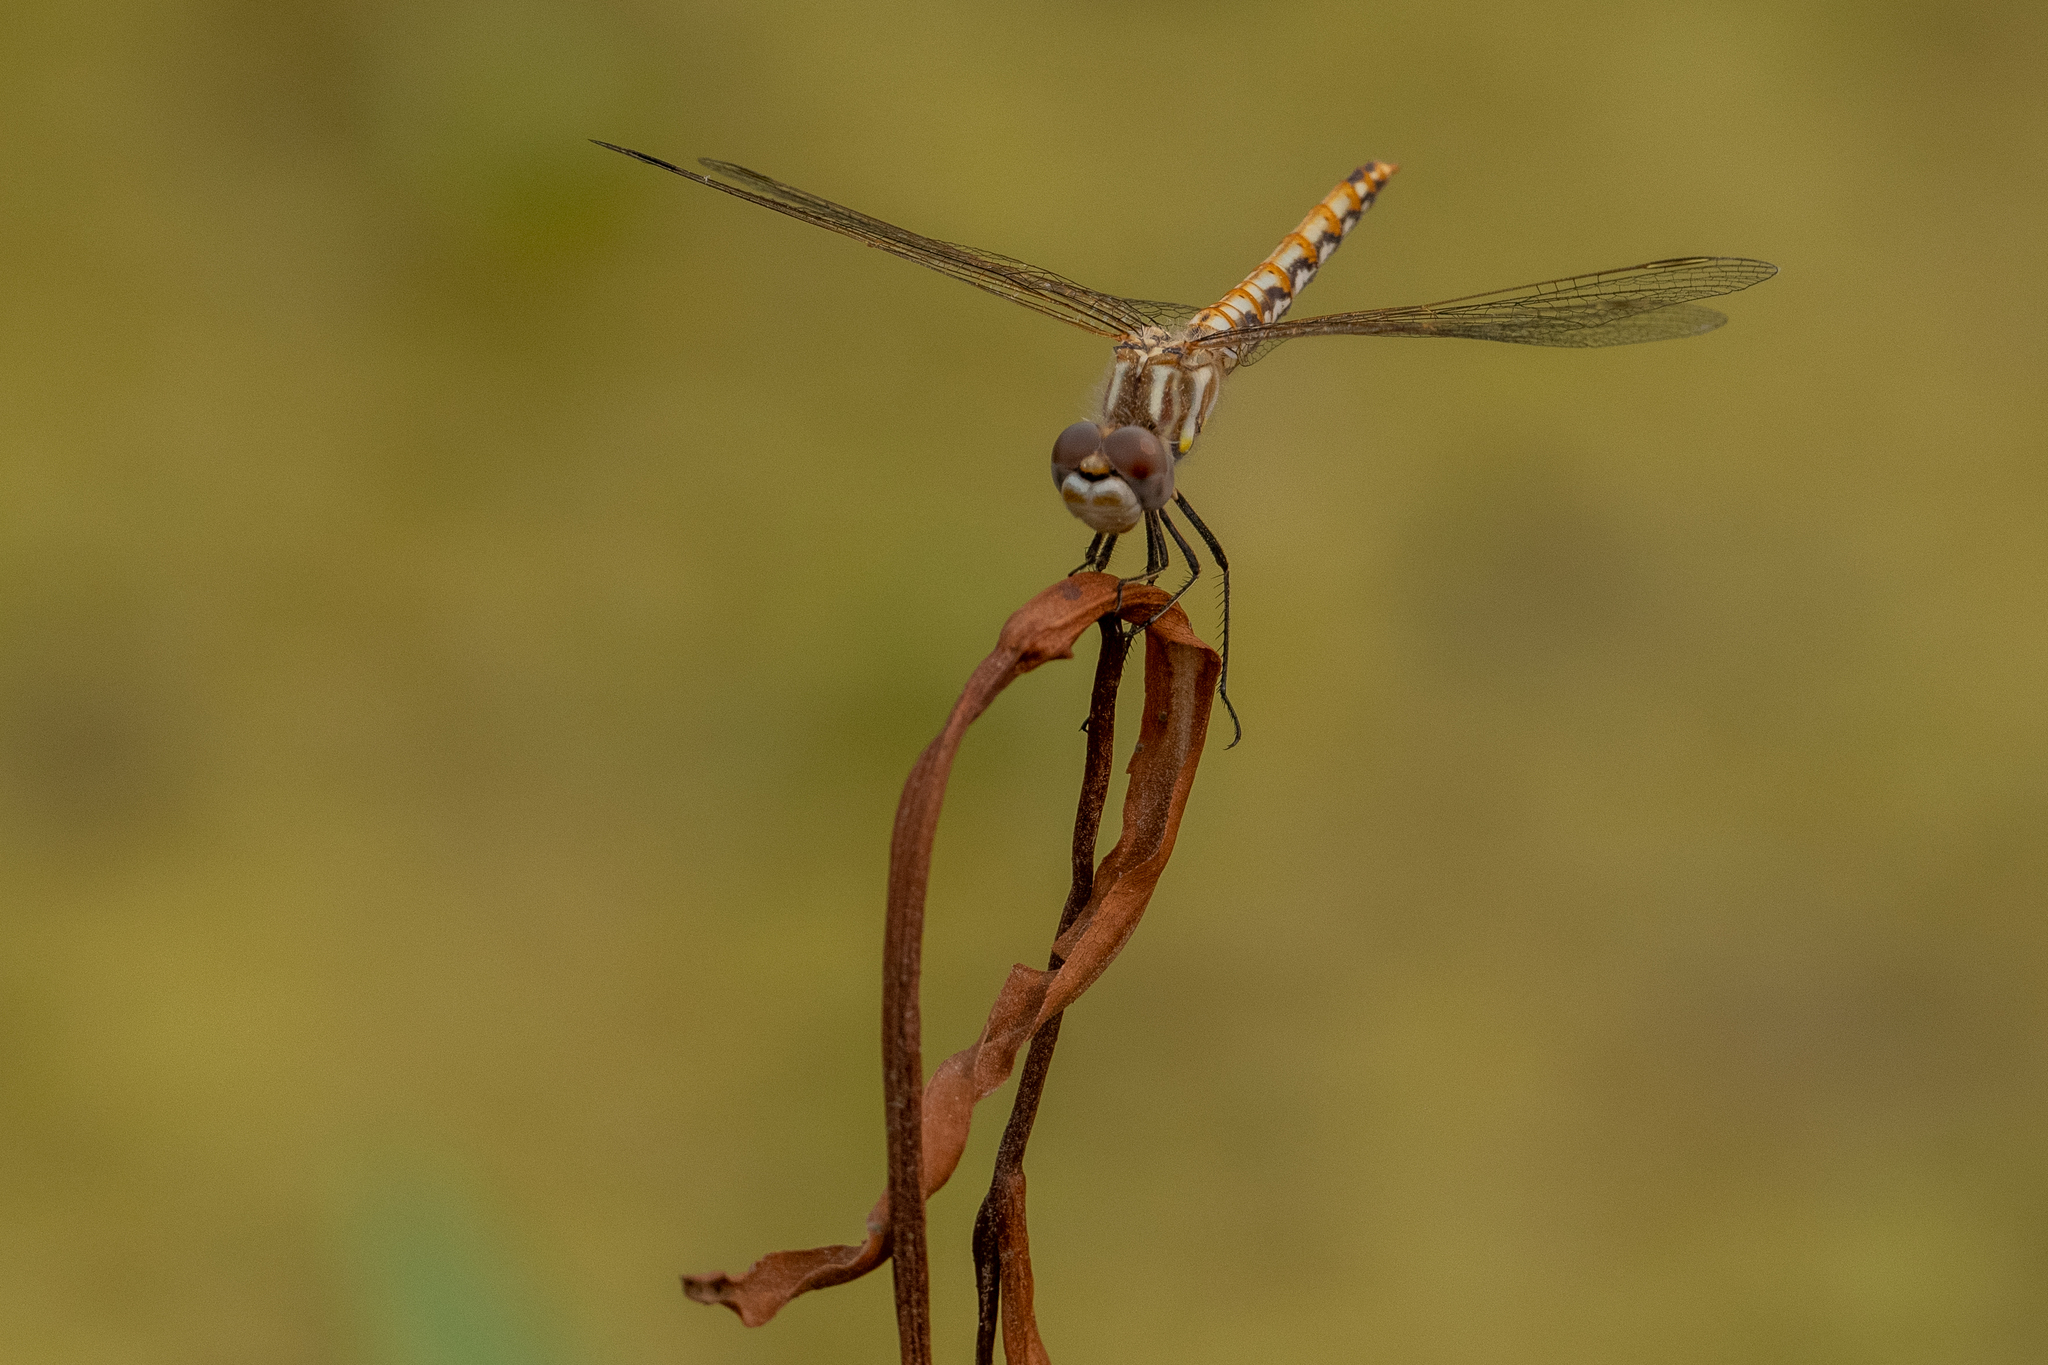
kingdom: Animalia
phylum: Arthropoda
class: Insecta
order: Odonata
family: Libellulidae
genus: Sympetrum
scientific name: Sympetrum corruptum
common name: Variegated meadowhawk
